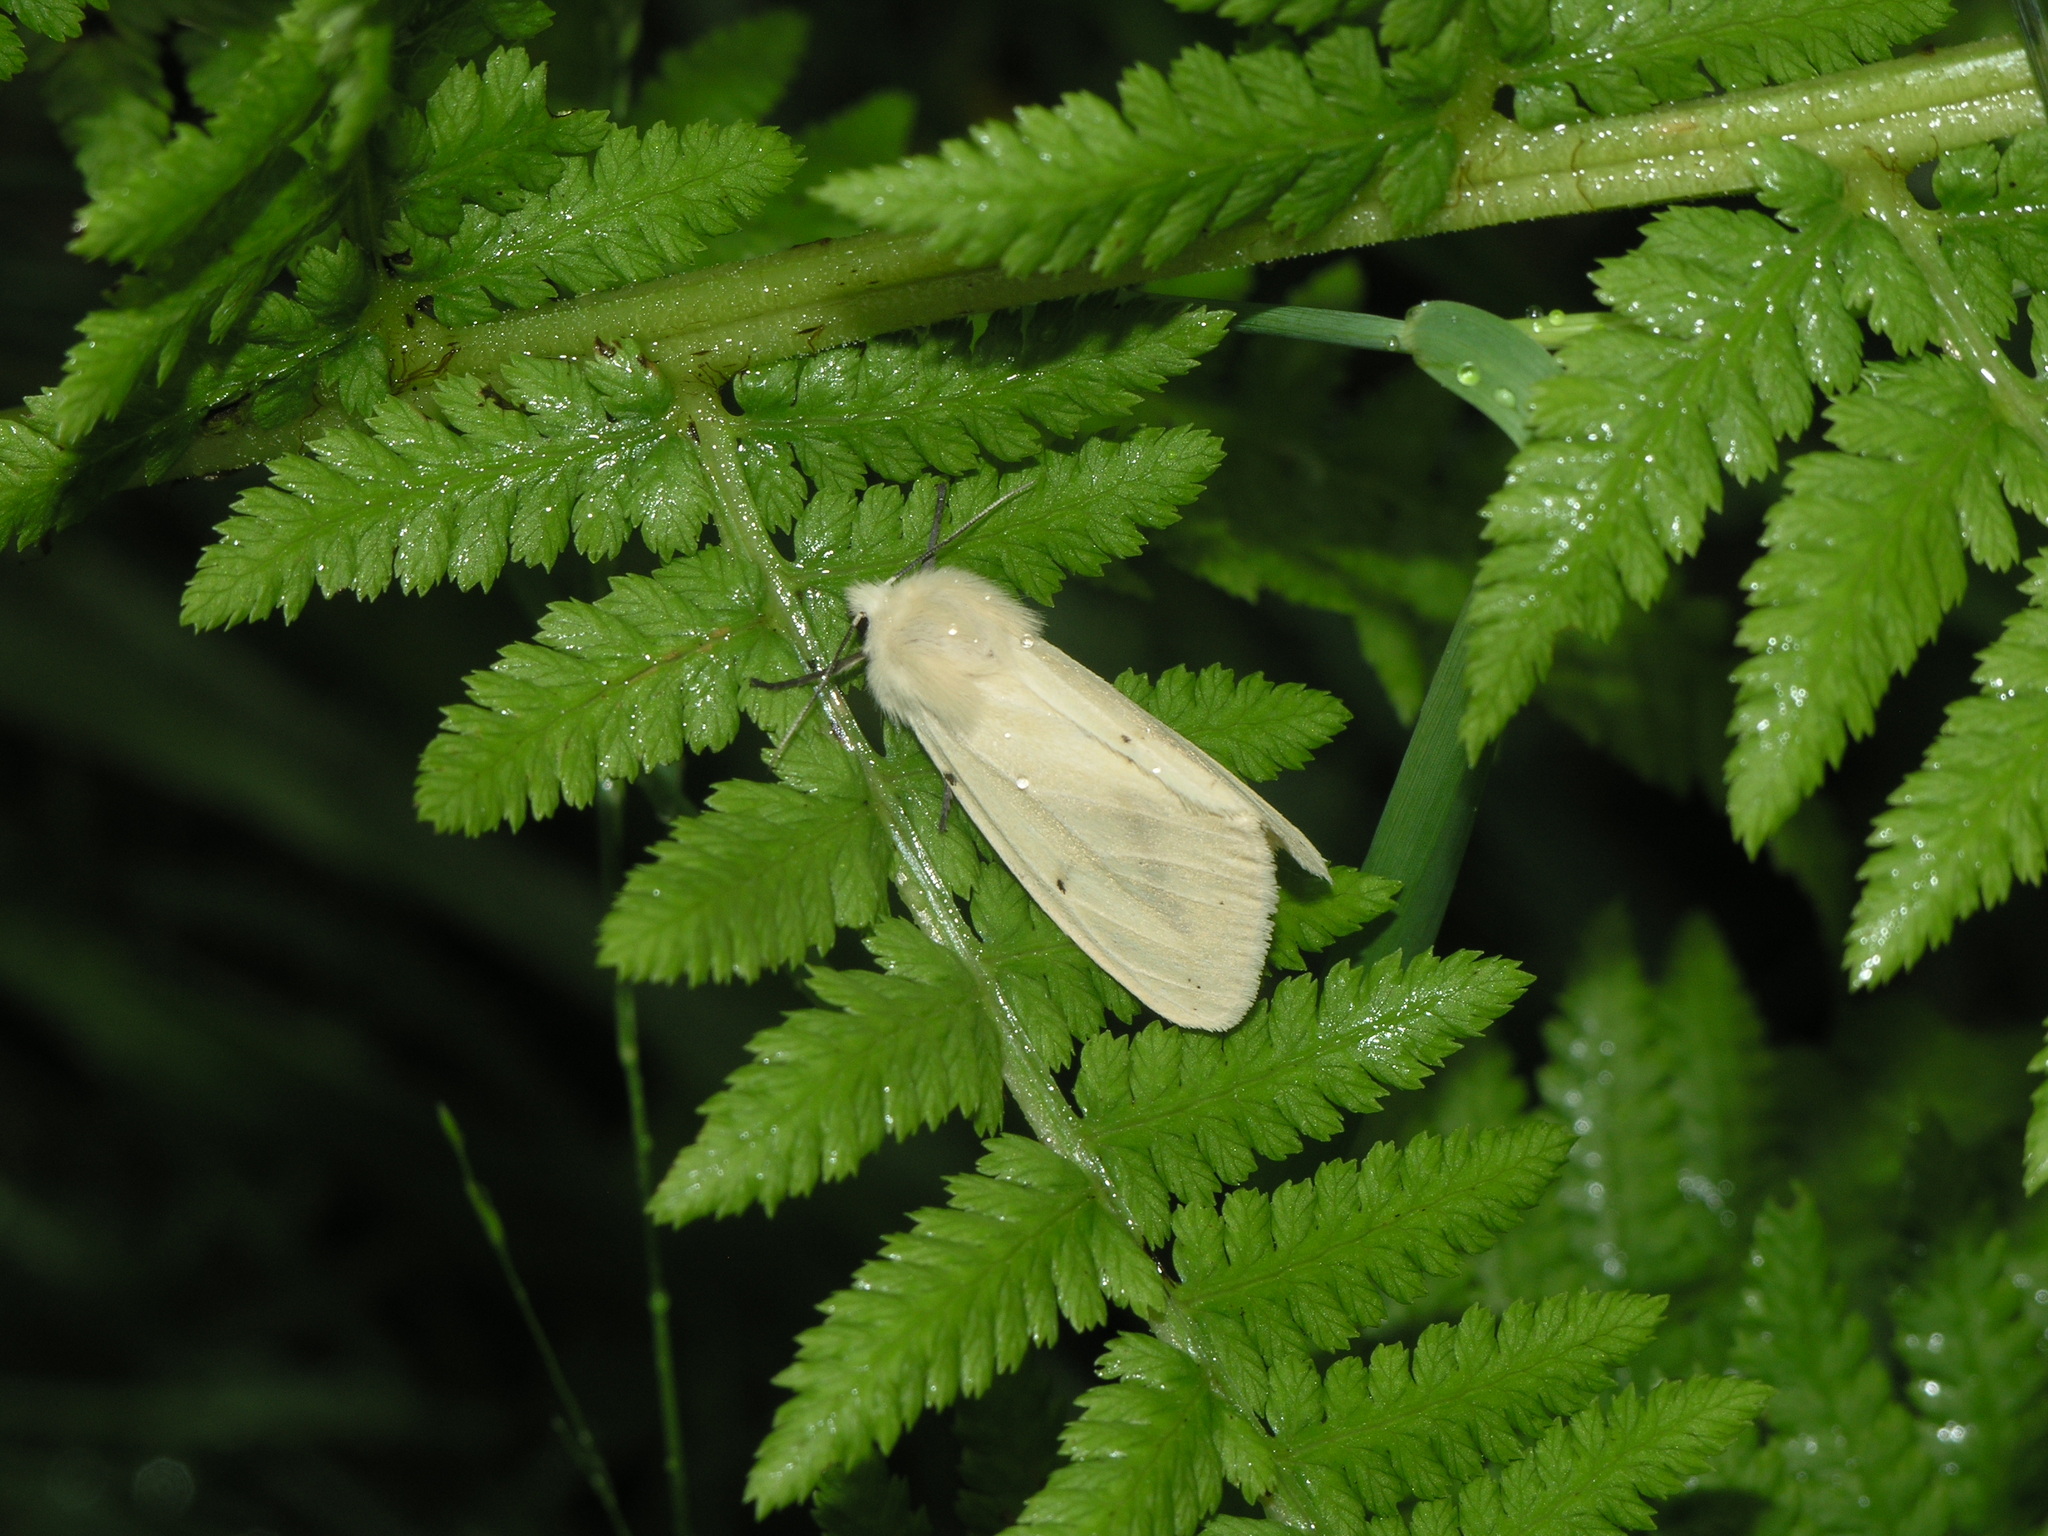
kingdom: Animalia
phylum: Arthropoda
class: Insecta
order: Lepidoptera
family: Erebidae
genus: Spilarctia
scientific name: Spilarctia lutea
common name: Buff ermine
